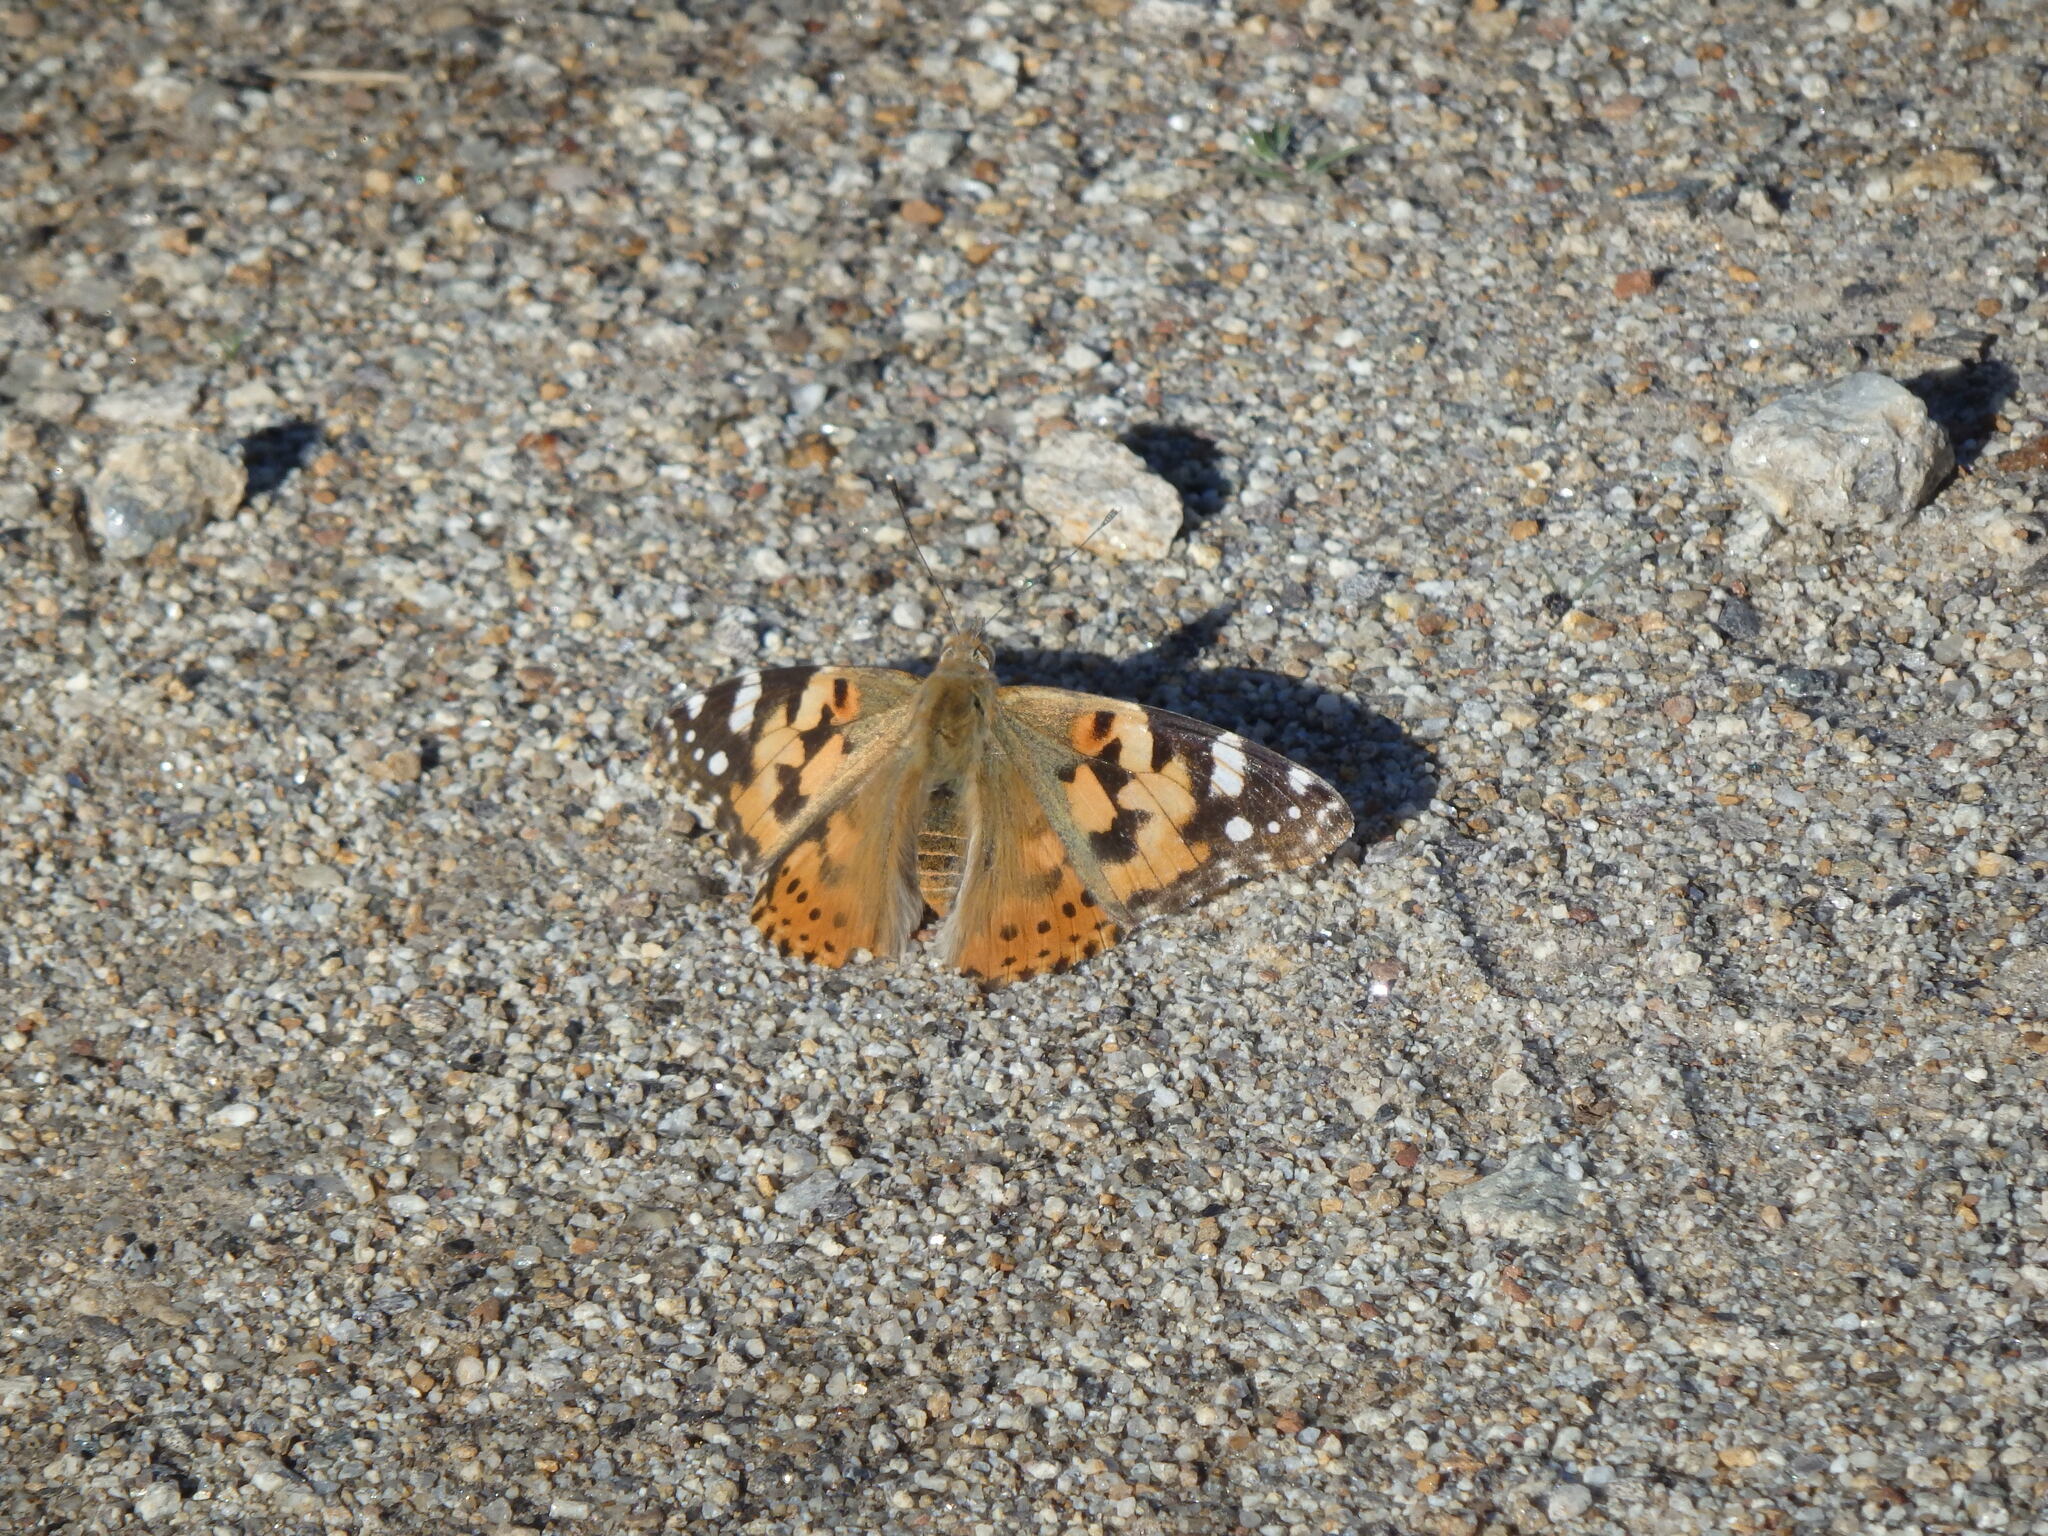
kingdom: Animalia
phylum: Arthropoda
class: Insecta
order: Lepidoptera
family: Nymphalidae
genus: Vanessa
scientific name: Vanessa cardui
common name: Painted lady
